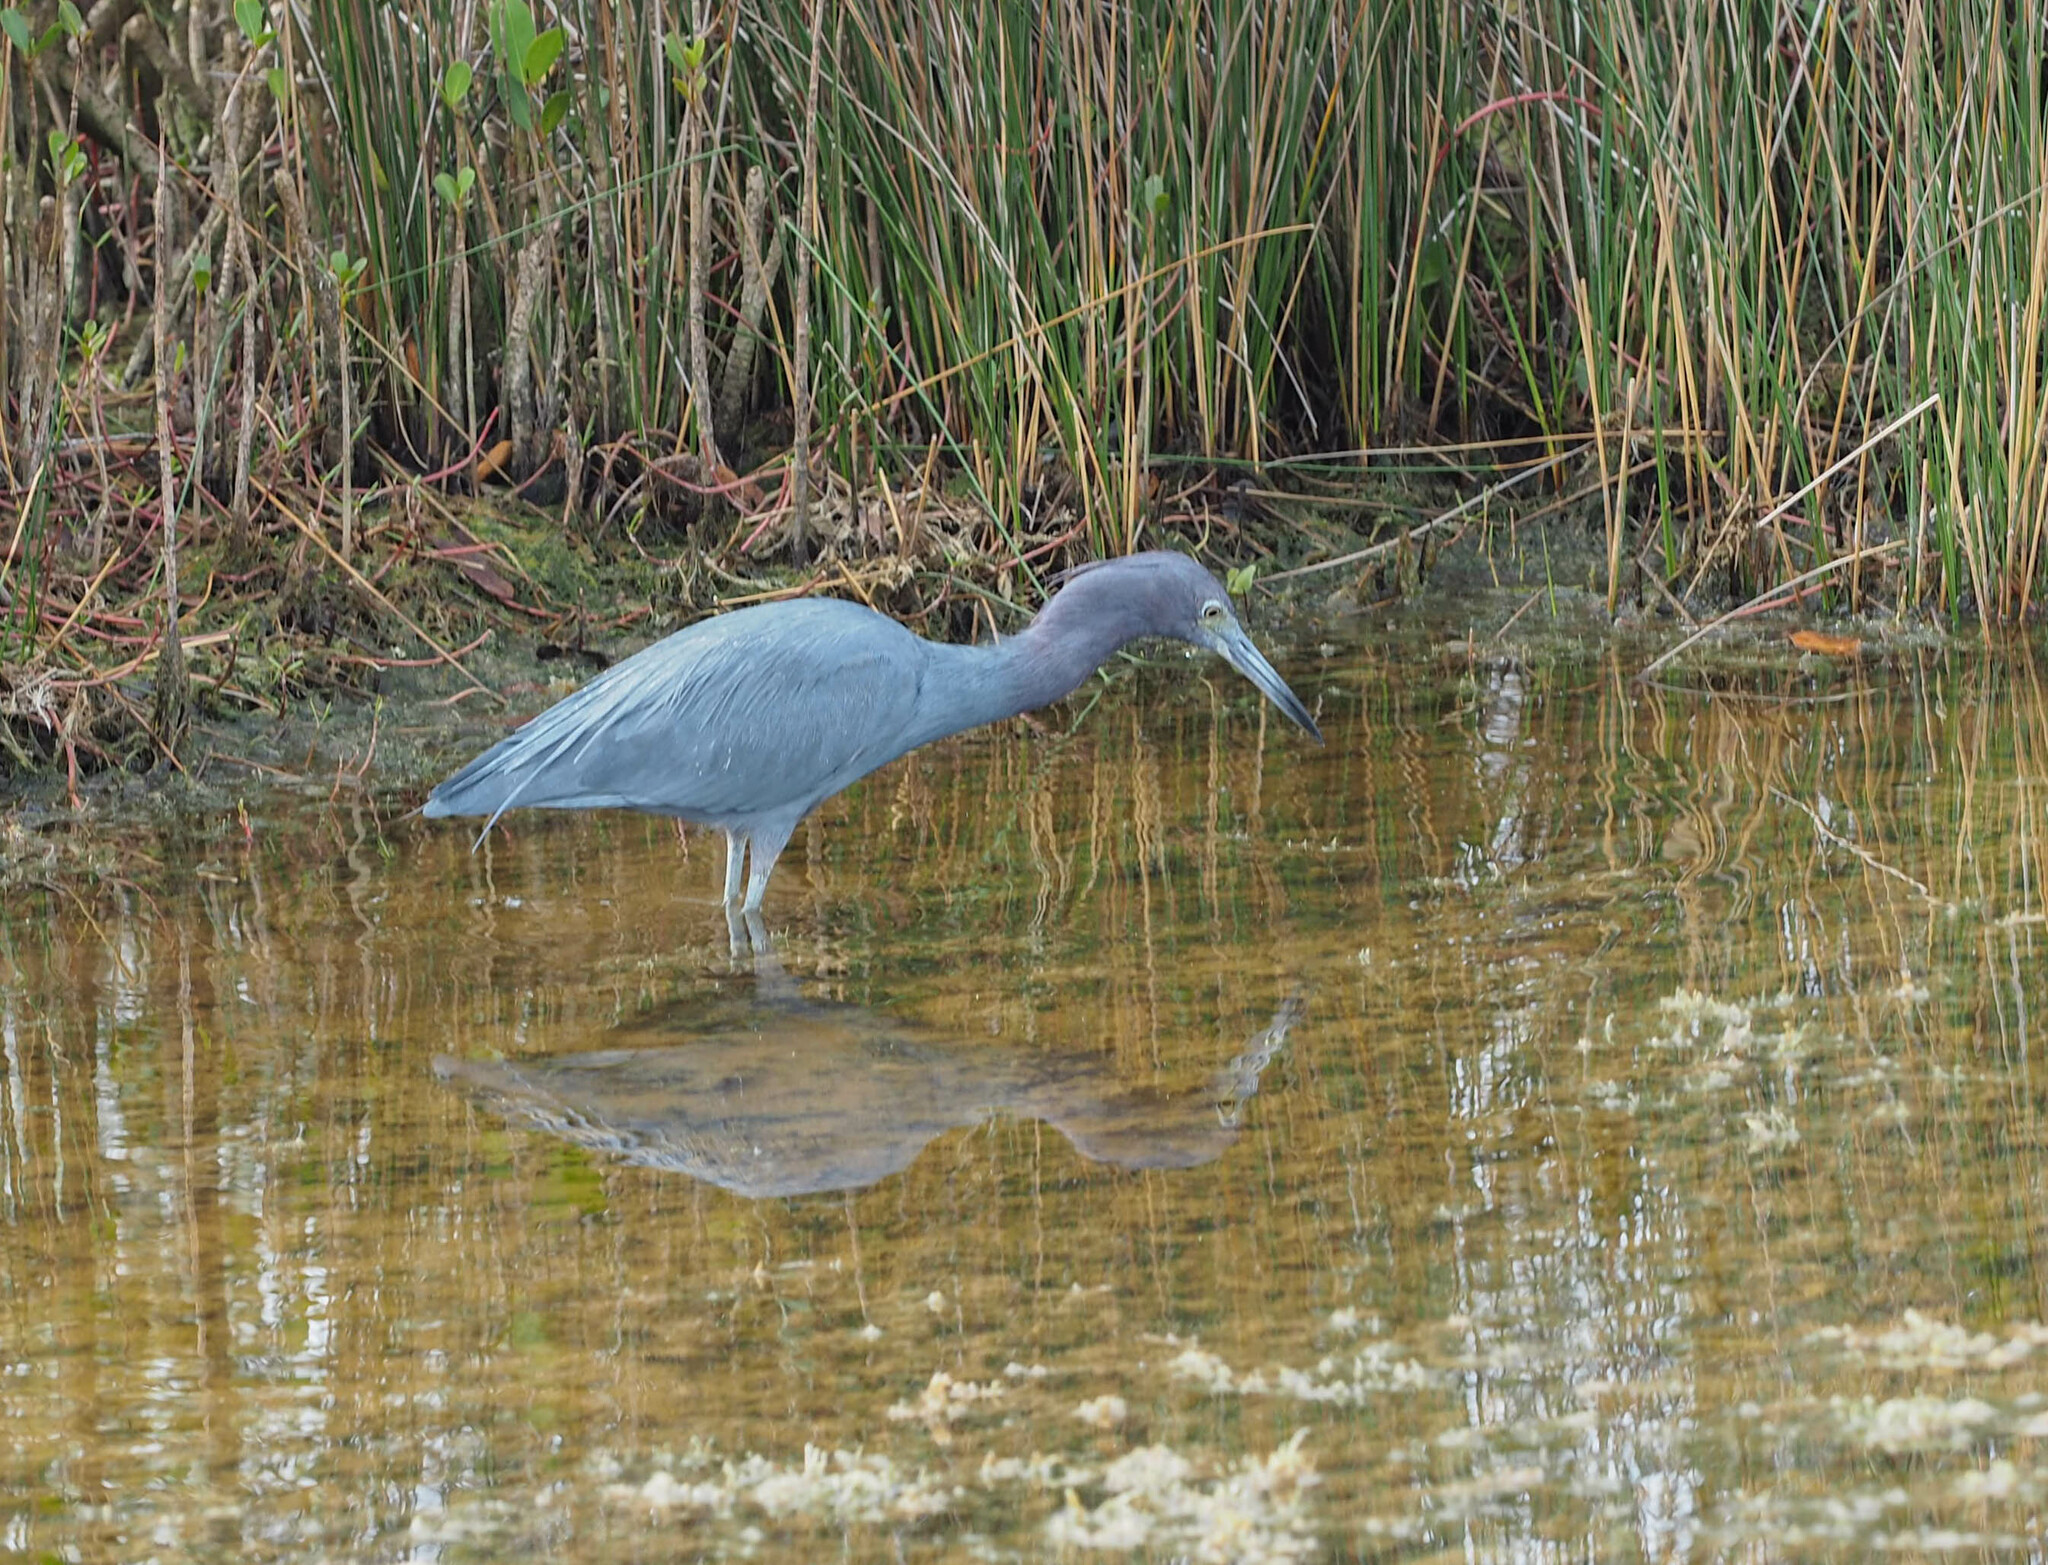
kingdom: Animalia
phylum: Chordata
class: Aves
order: Pelecaniformes
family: Ardeidae
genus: Egretta
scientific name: Egretta caerulea
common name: Little blue heron
